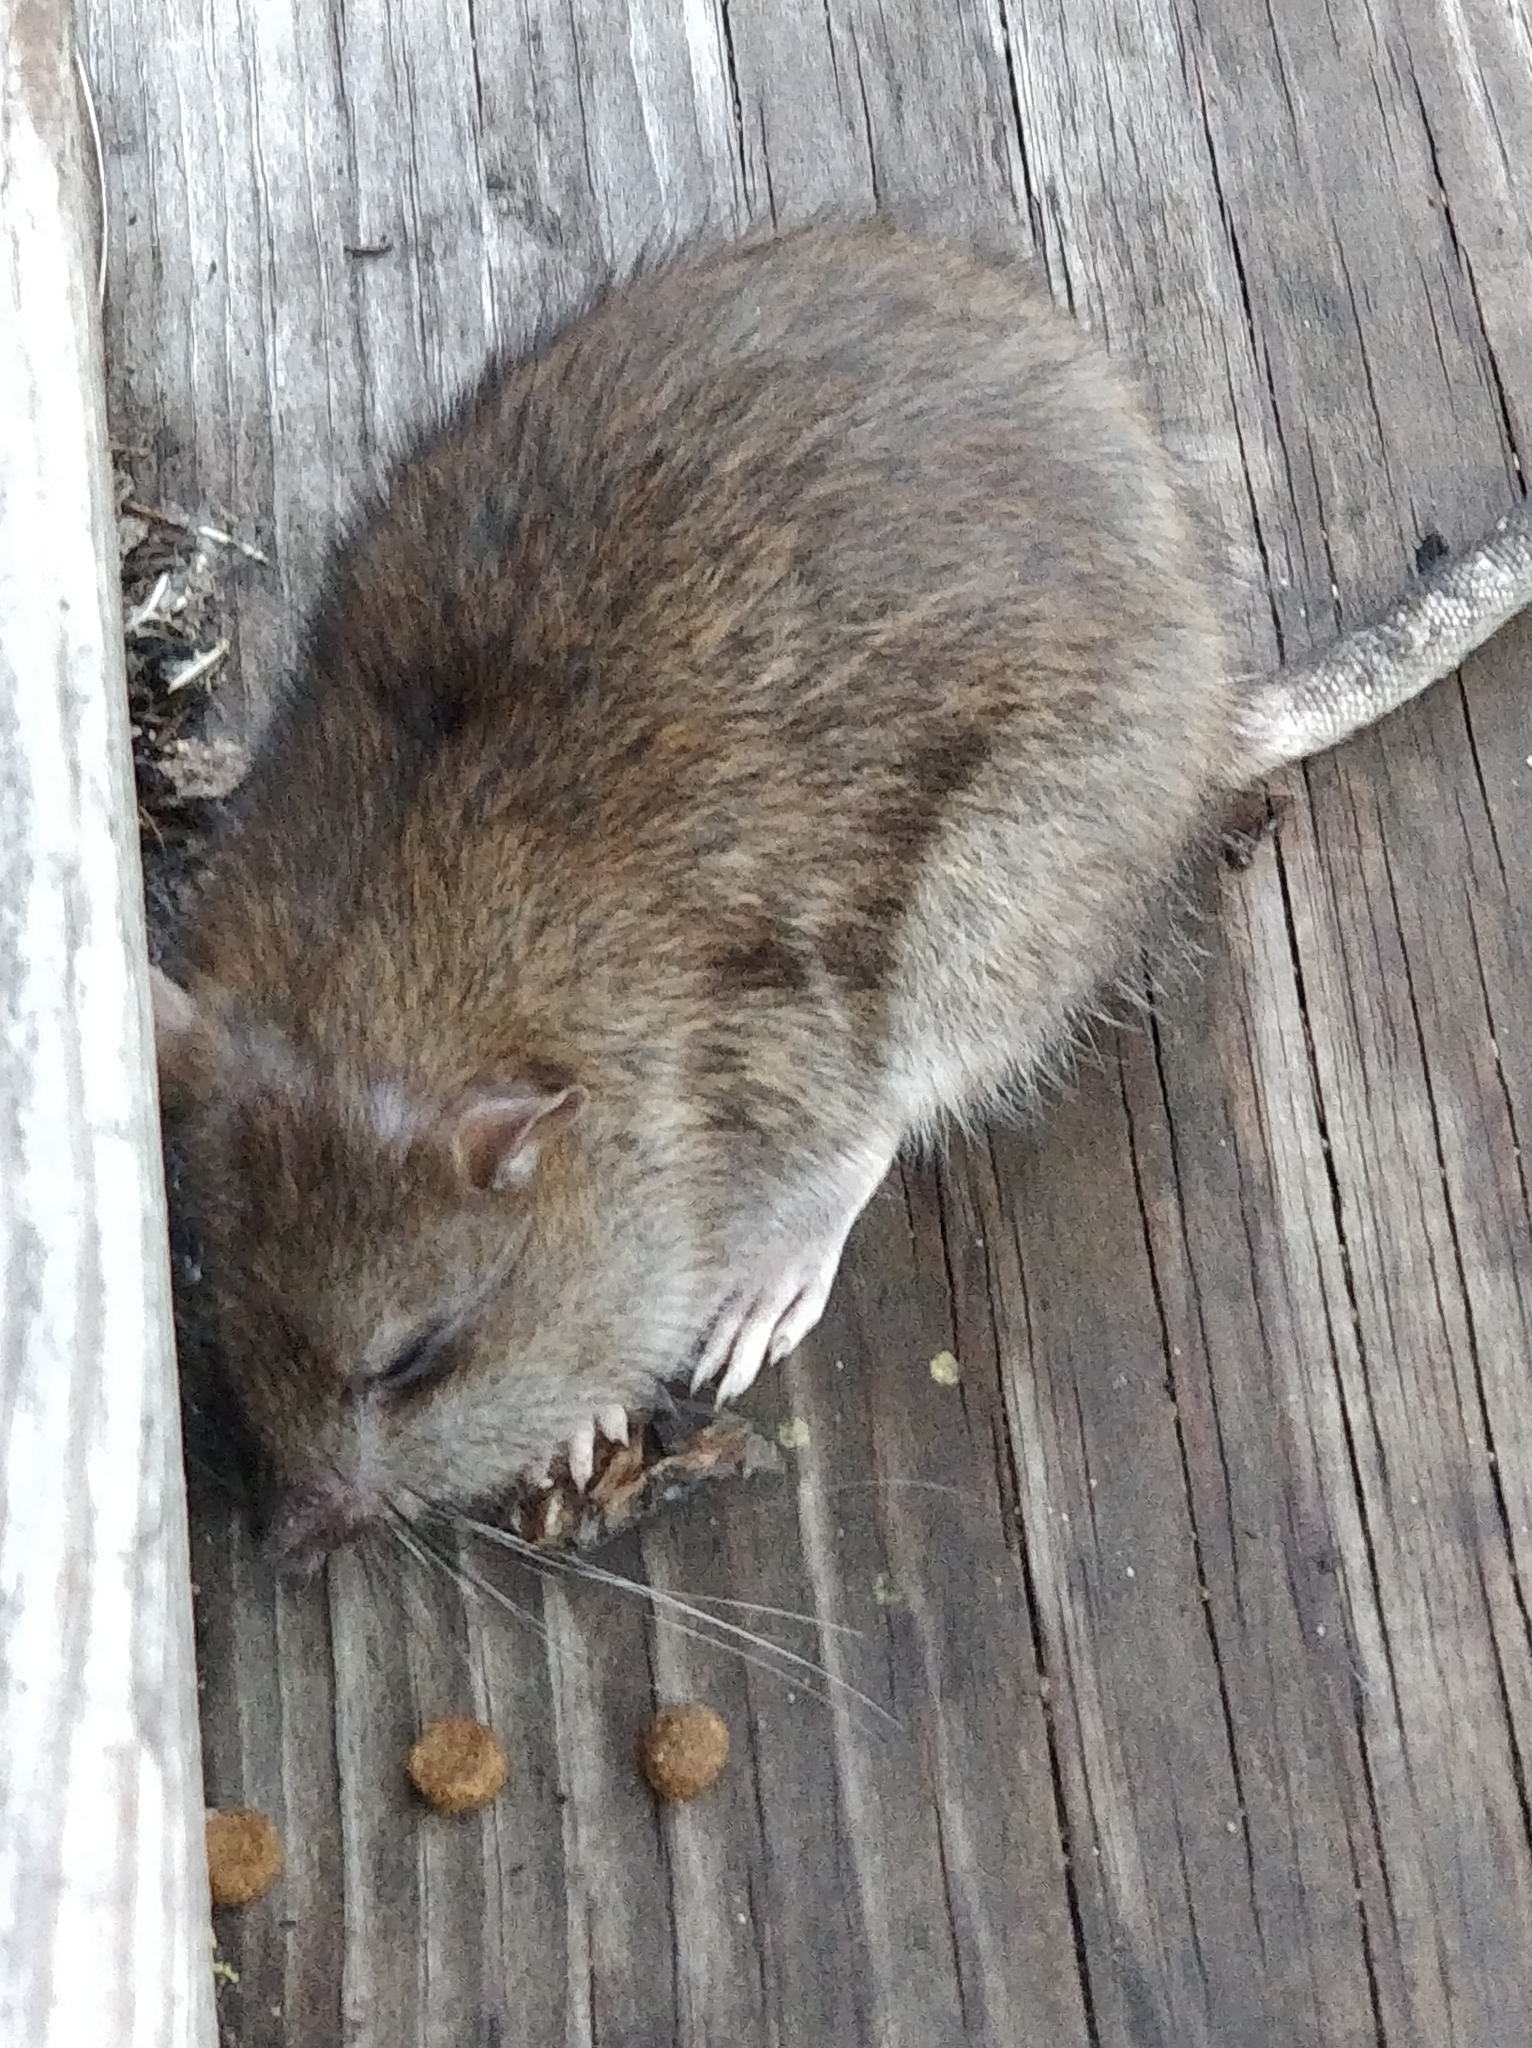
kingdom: Animalia
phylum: Chordata
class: Mammalia
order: Rodentia
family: Muridae
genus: Rattus
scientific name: Rattus norvegicus
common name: Brown rat
